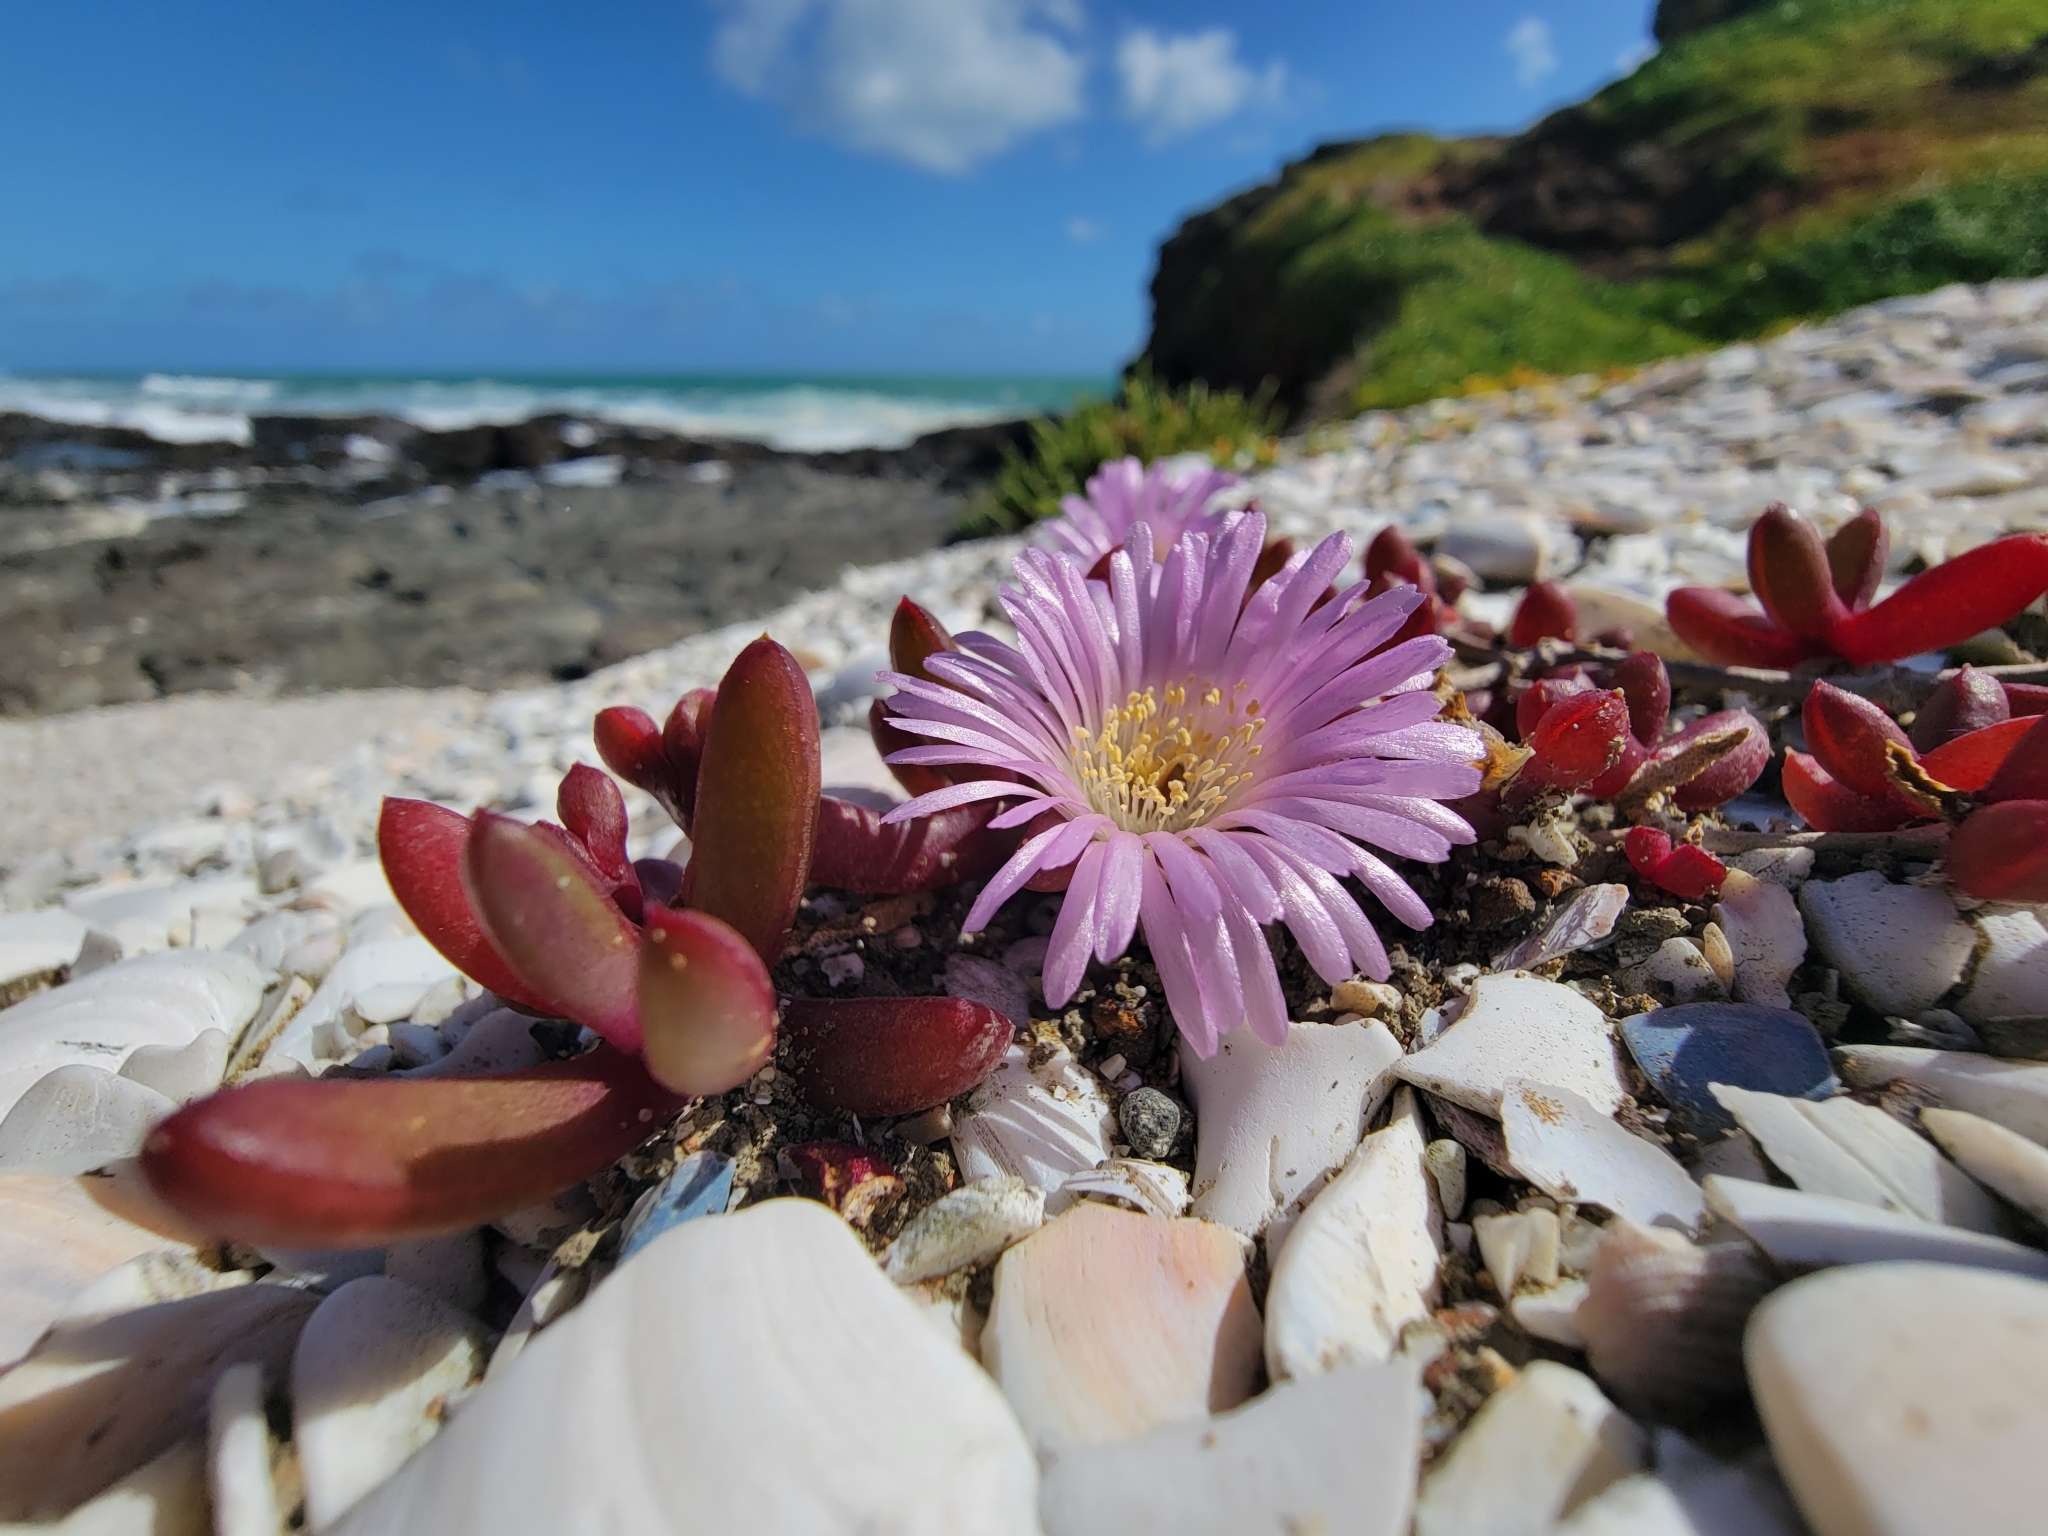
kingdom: Plantae
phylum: Tracheophyta
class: Magnoliopsida
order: Caryophyllales
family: Aizoaceae
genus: Disphyma
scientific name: Disphyma australe
